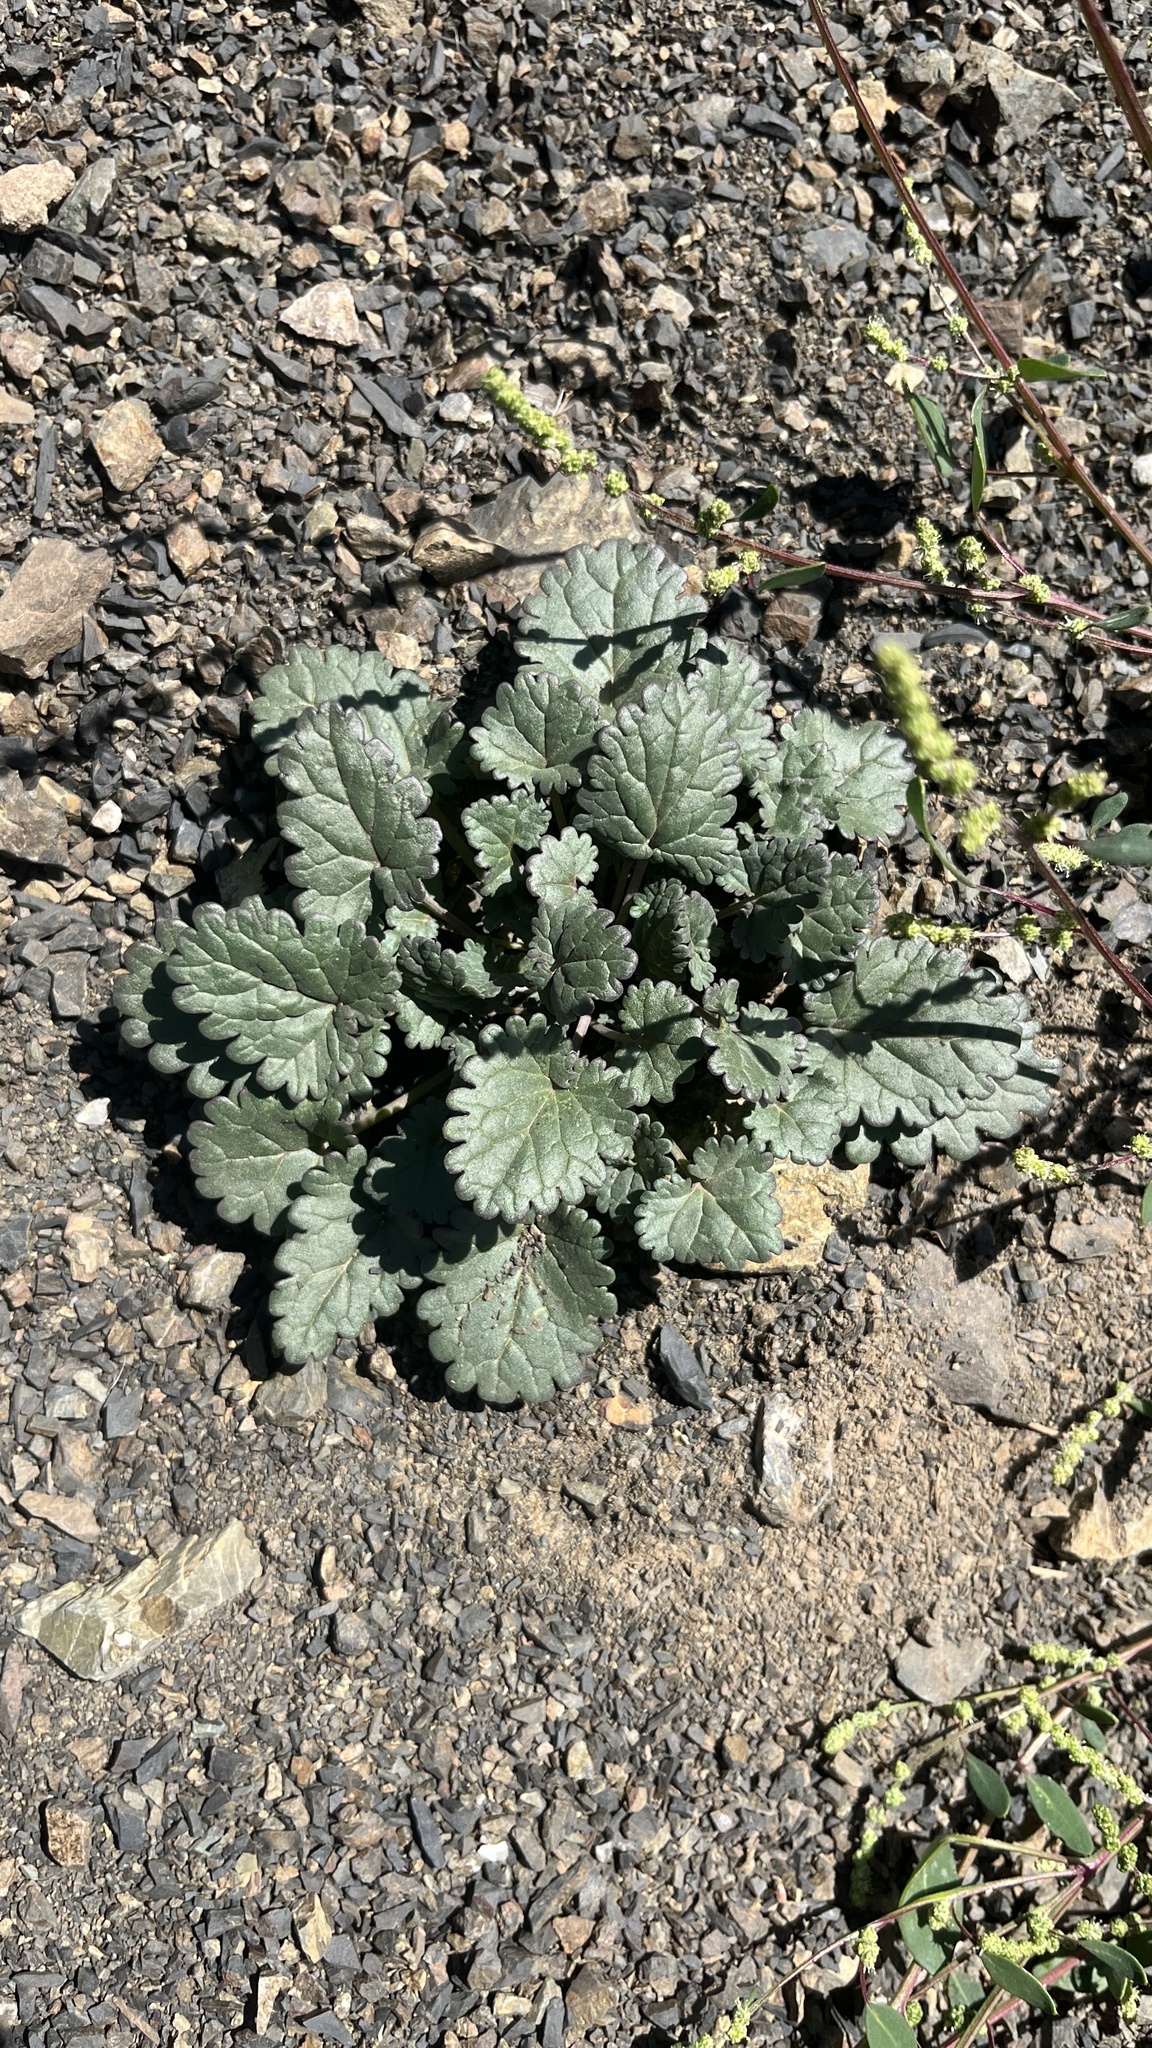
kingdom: Plantae
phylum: Tracheophyta
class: Magnoliopsida
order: Geraniales
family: Geraniaceae
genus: Erodium
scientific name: Erodium tibetanum
